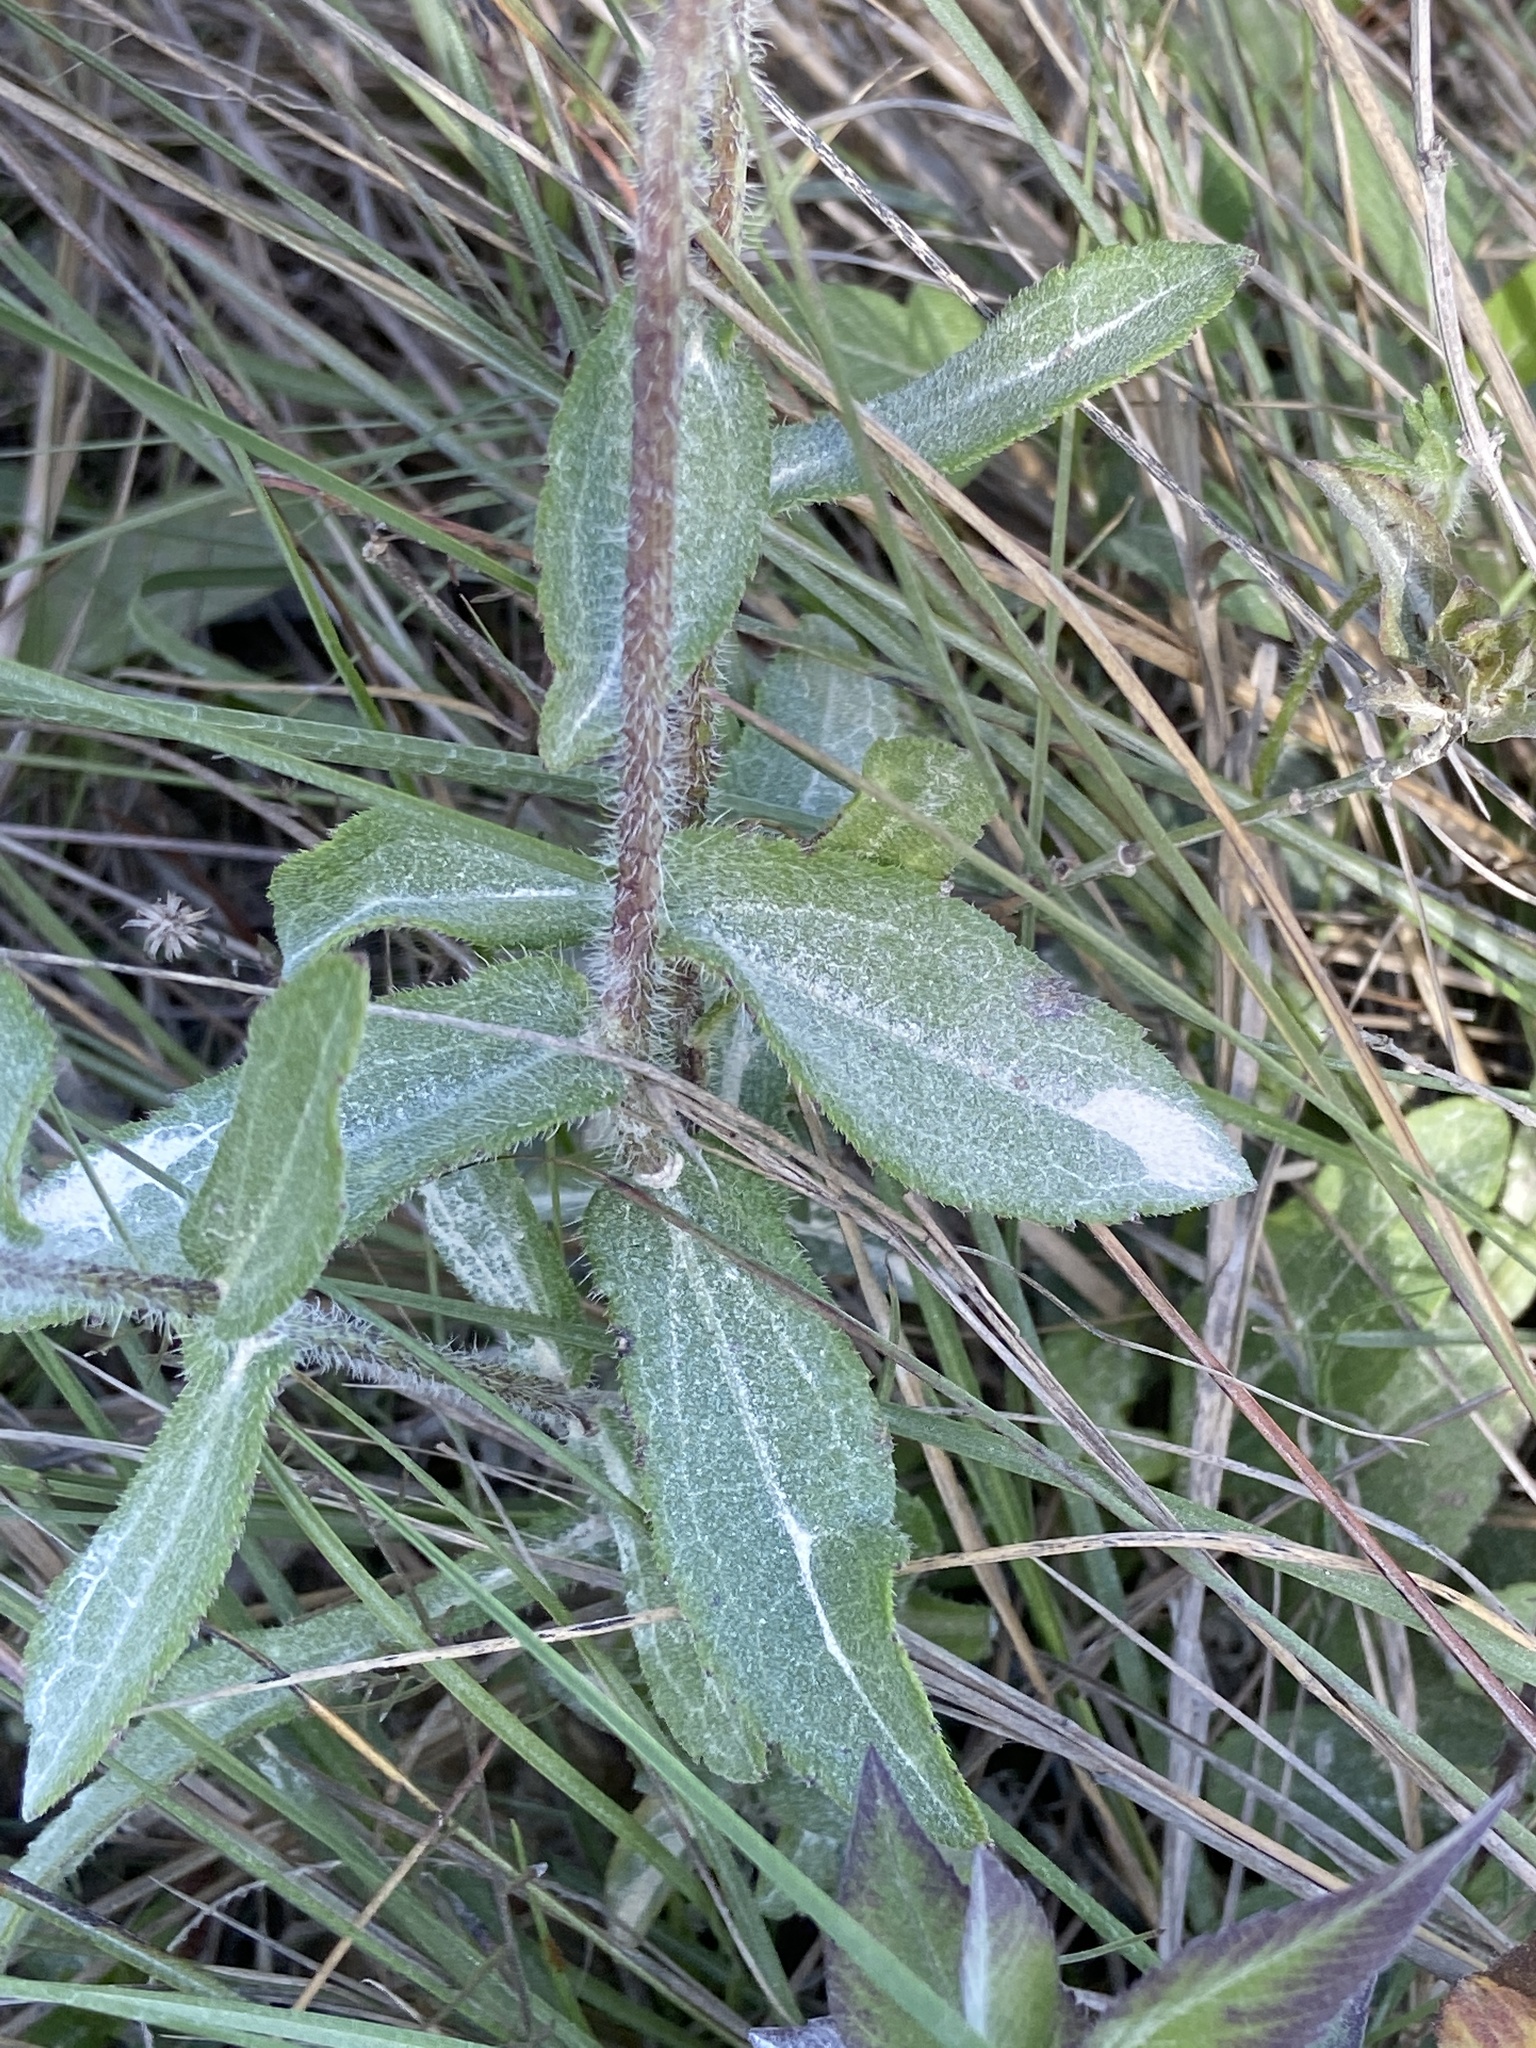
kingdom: Plantae
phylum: Tracheophyta
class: Magnoliopsida
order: Asterales
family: Asteraceae
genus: Rudbeckia
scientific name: Rudbeckia hirta
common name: Black-eyed-susan
